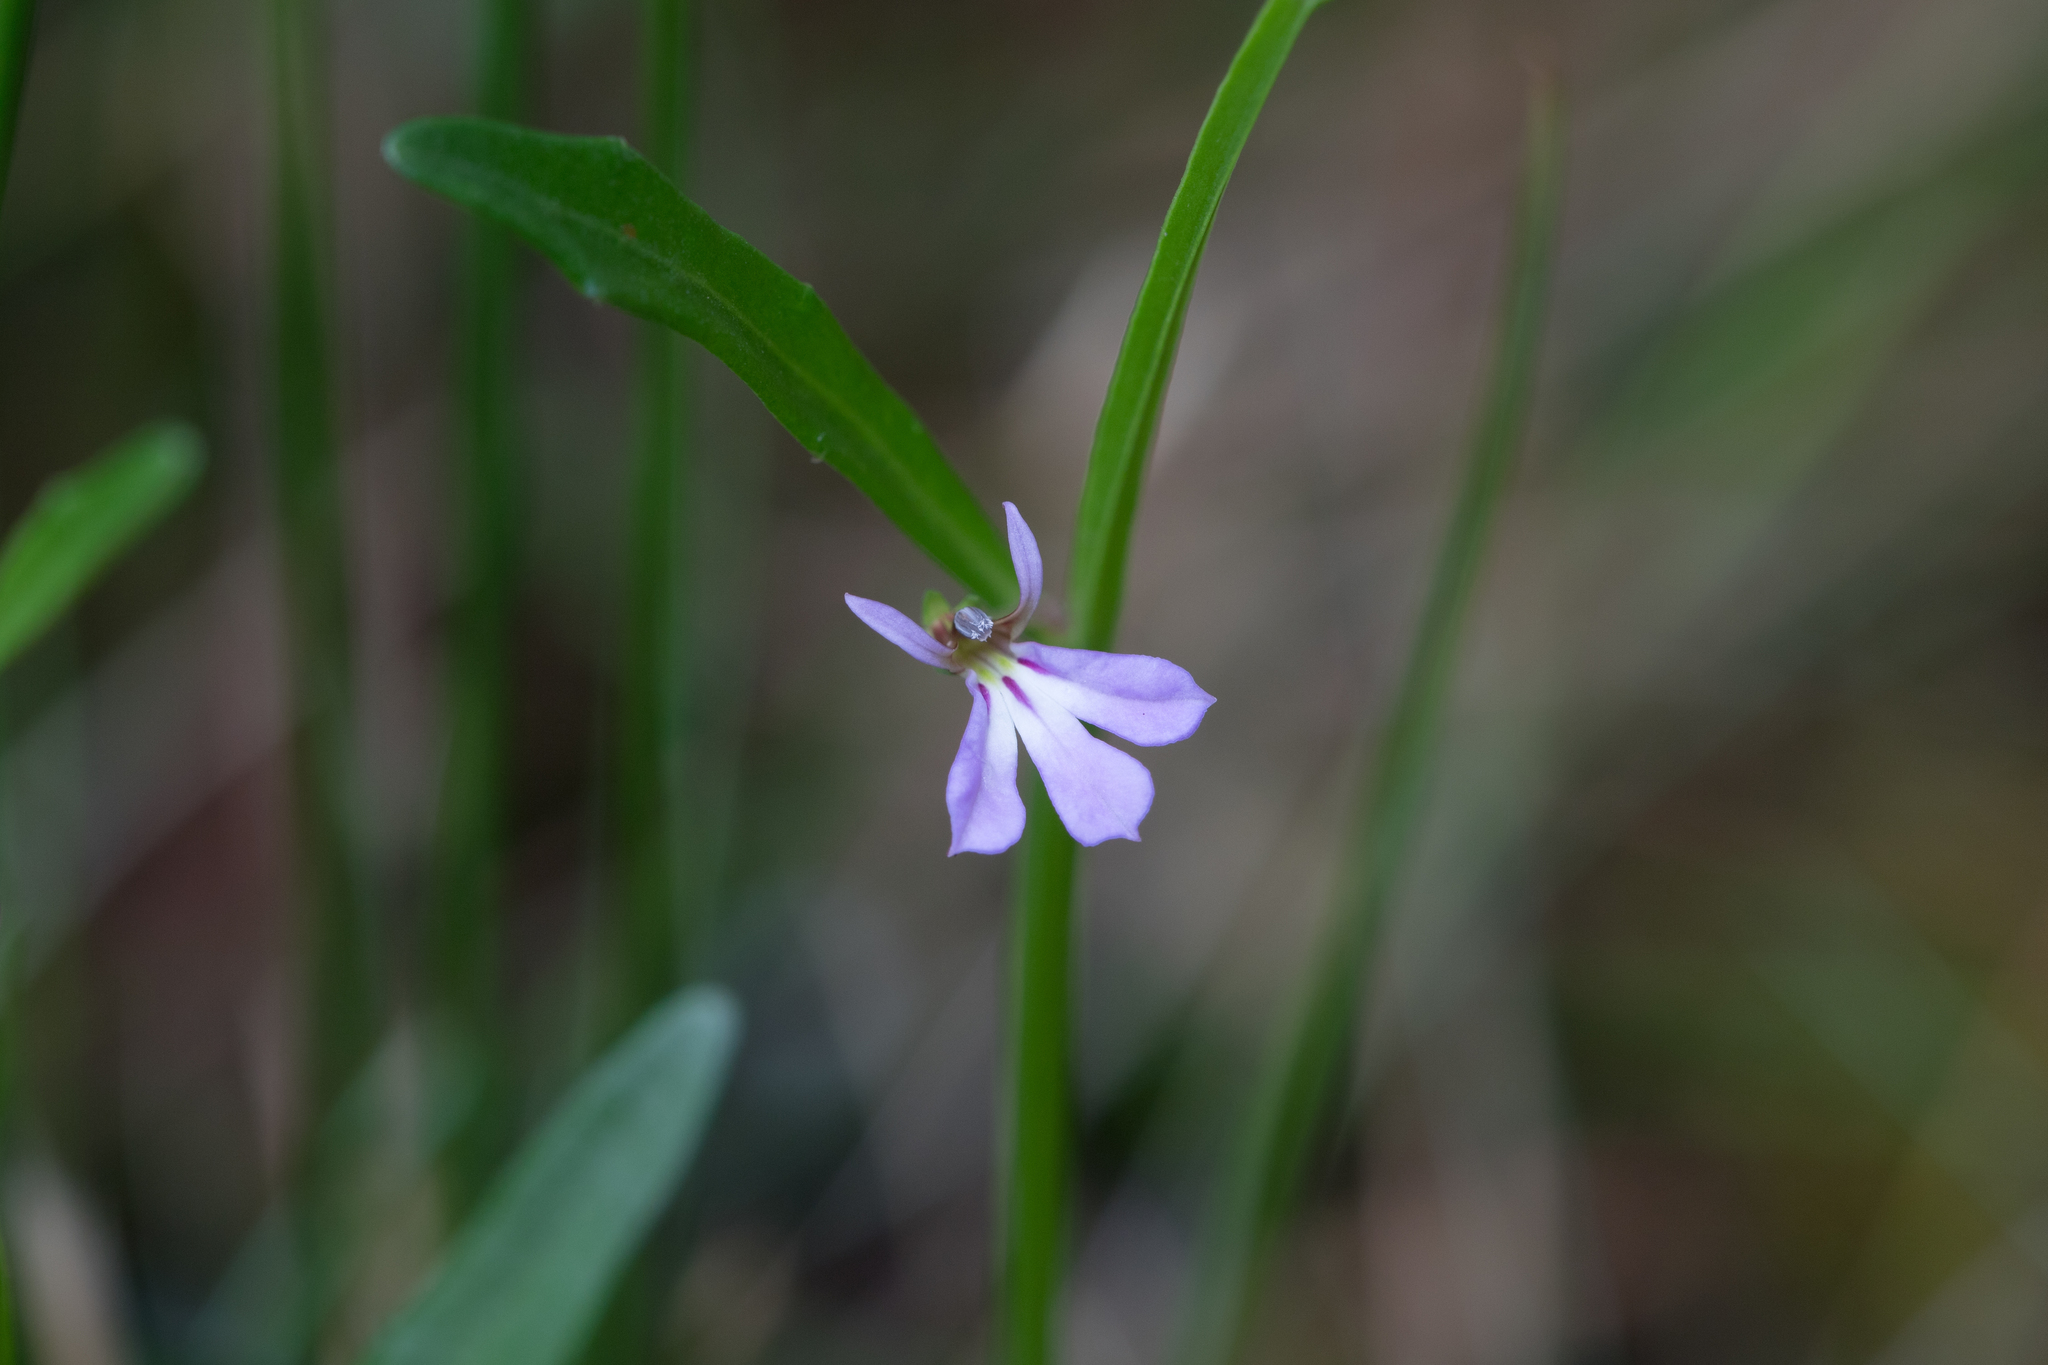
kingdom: Plantae
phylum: Tracheophyta
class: Magnoliopsida
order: Asterales
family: Campanulaceae
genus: Lobelia
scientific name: Lobelia anceps
